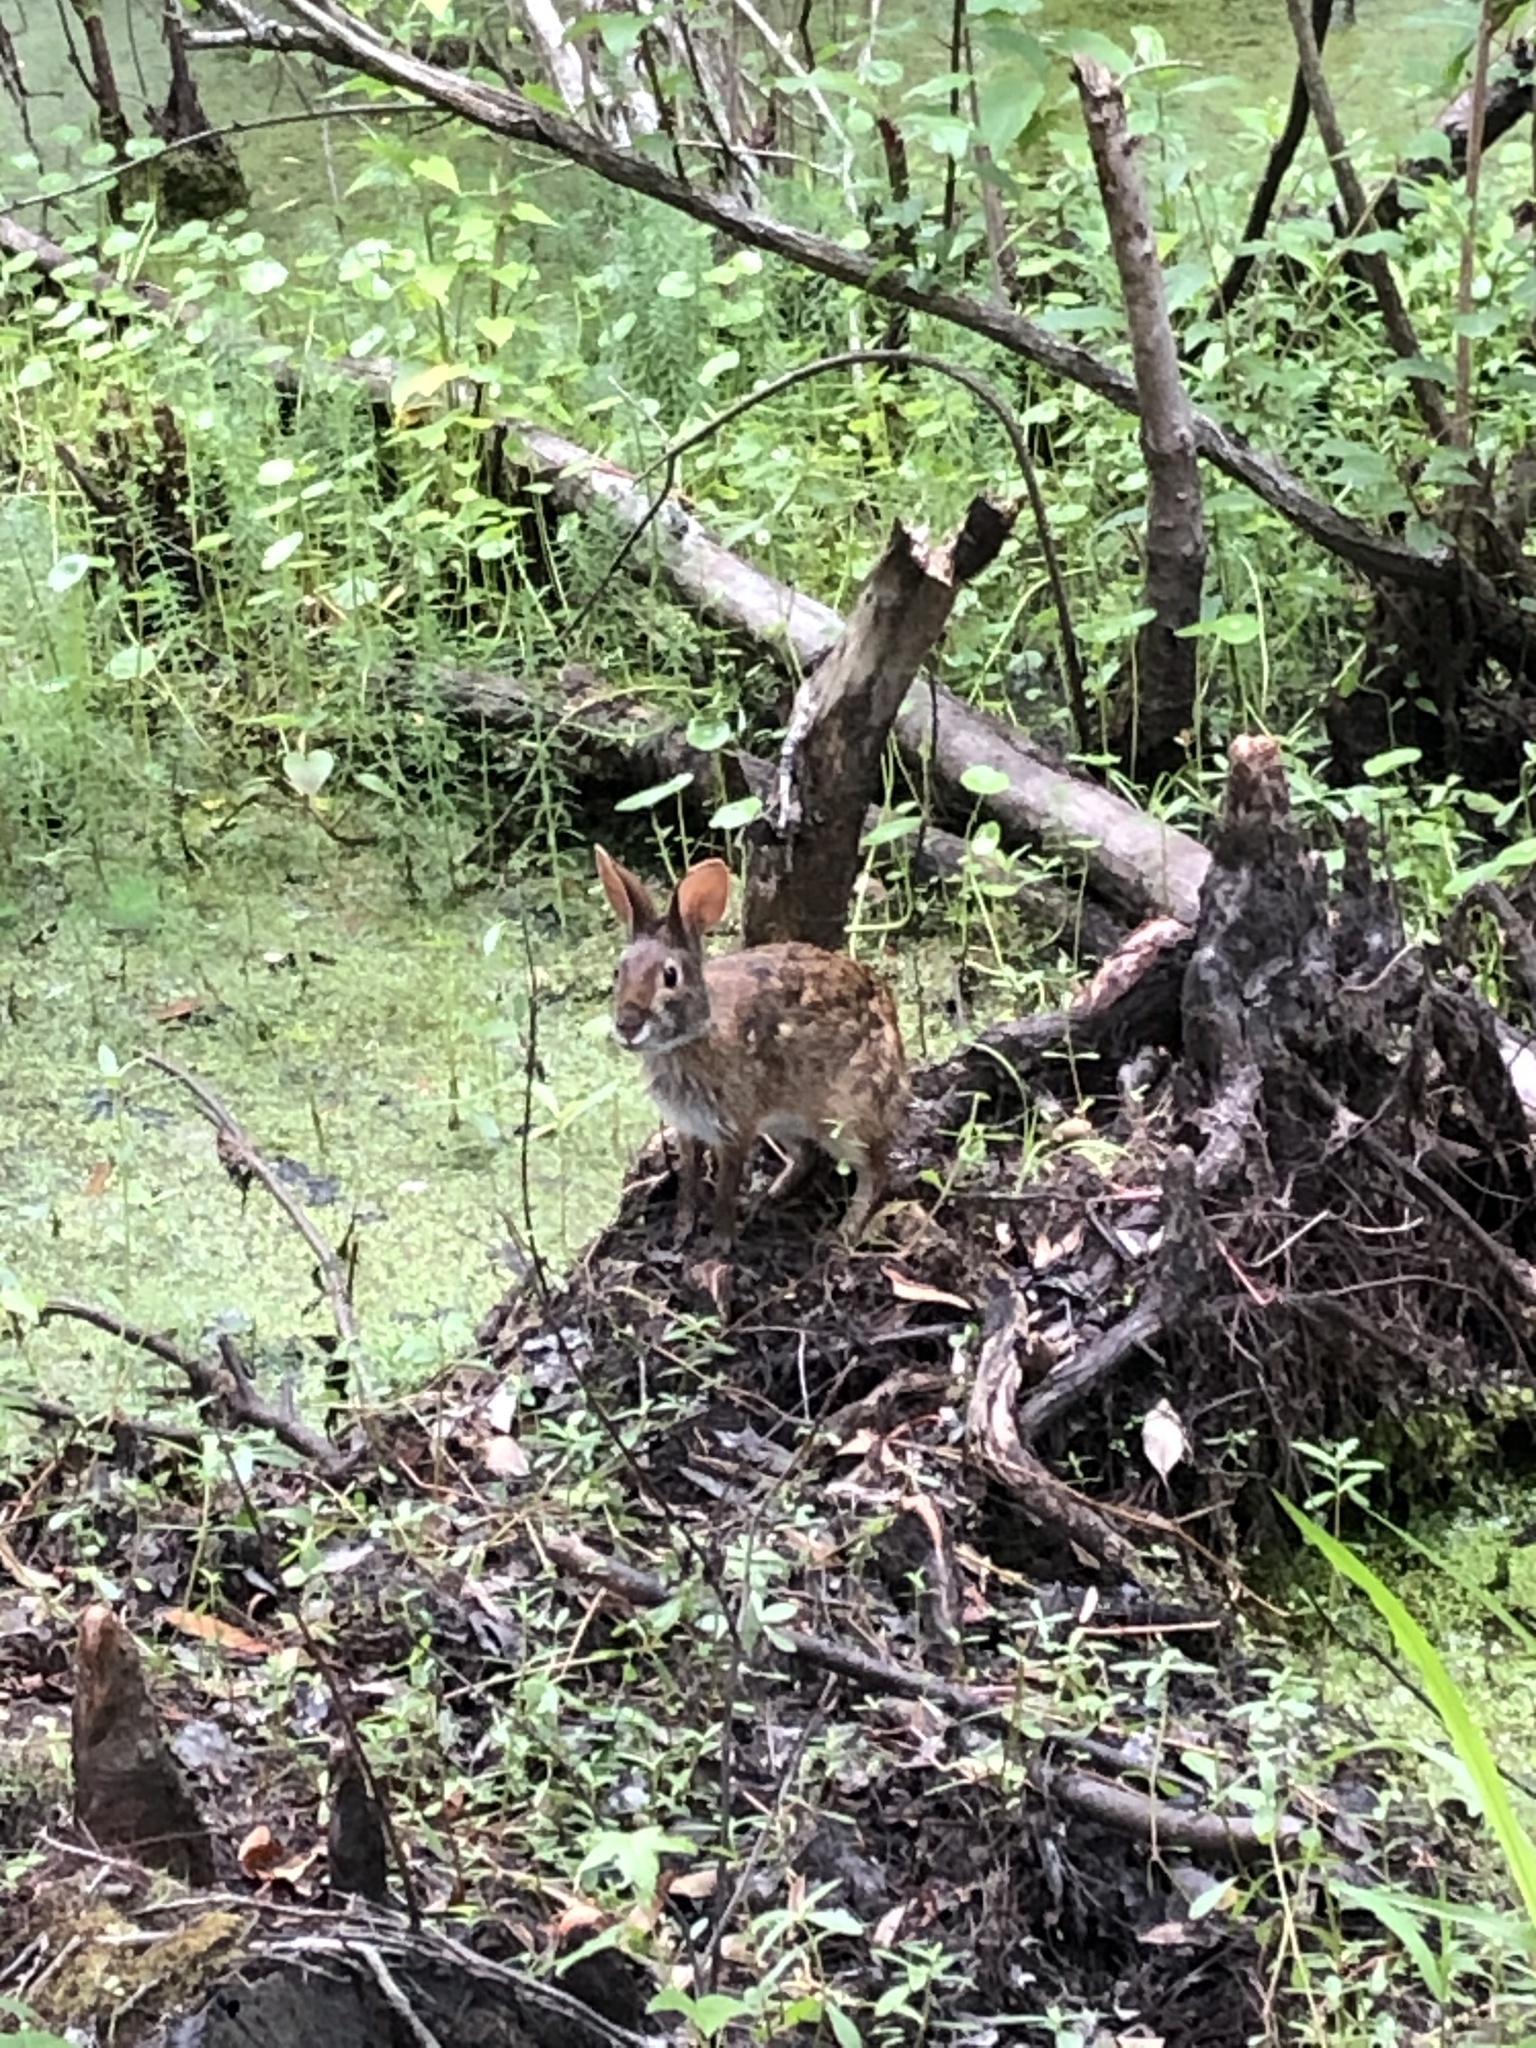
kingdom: Animalia
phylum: Chordata
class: Mammalia
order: Lagomorpha
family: Leporidae
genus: Sylvilagus
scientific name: Sylvilagus palustris
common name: Marsh rabbit
